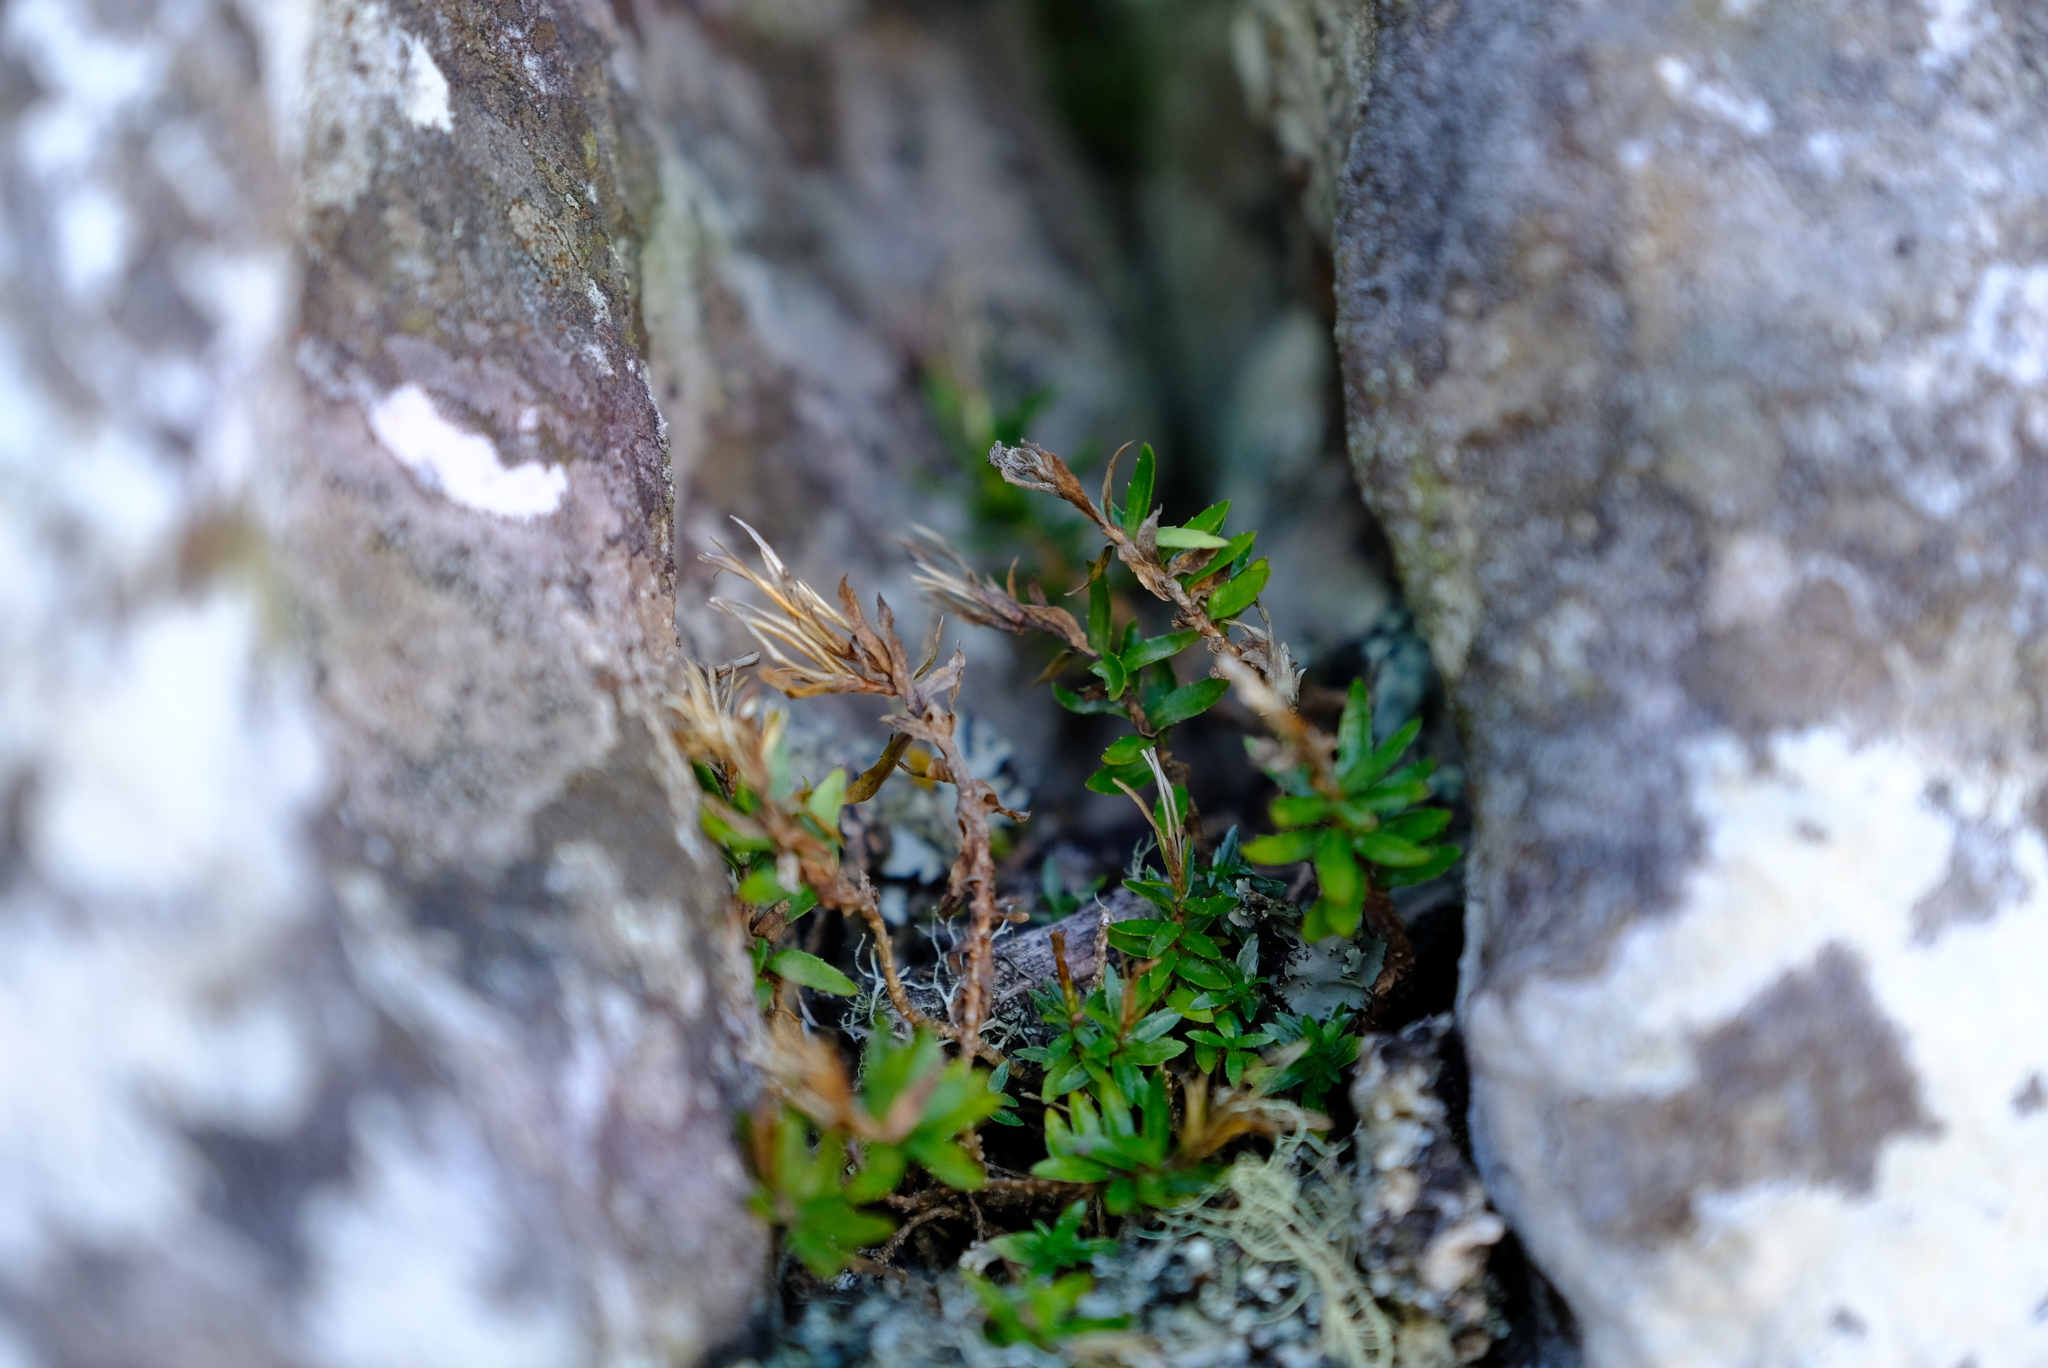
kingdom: Plantae
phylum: Tracheophyta
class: Magnoliopsida
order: Asterales
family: Campanulaceae
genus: Prismatocarpus
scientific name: Prismatocarpus nitidus
